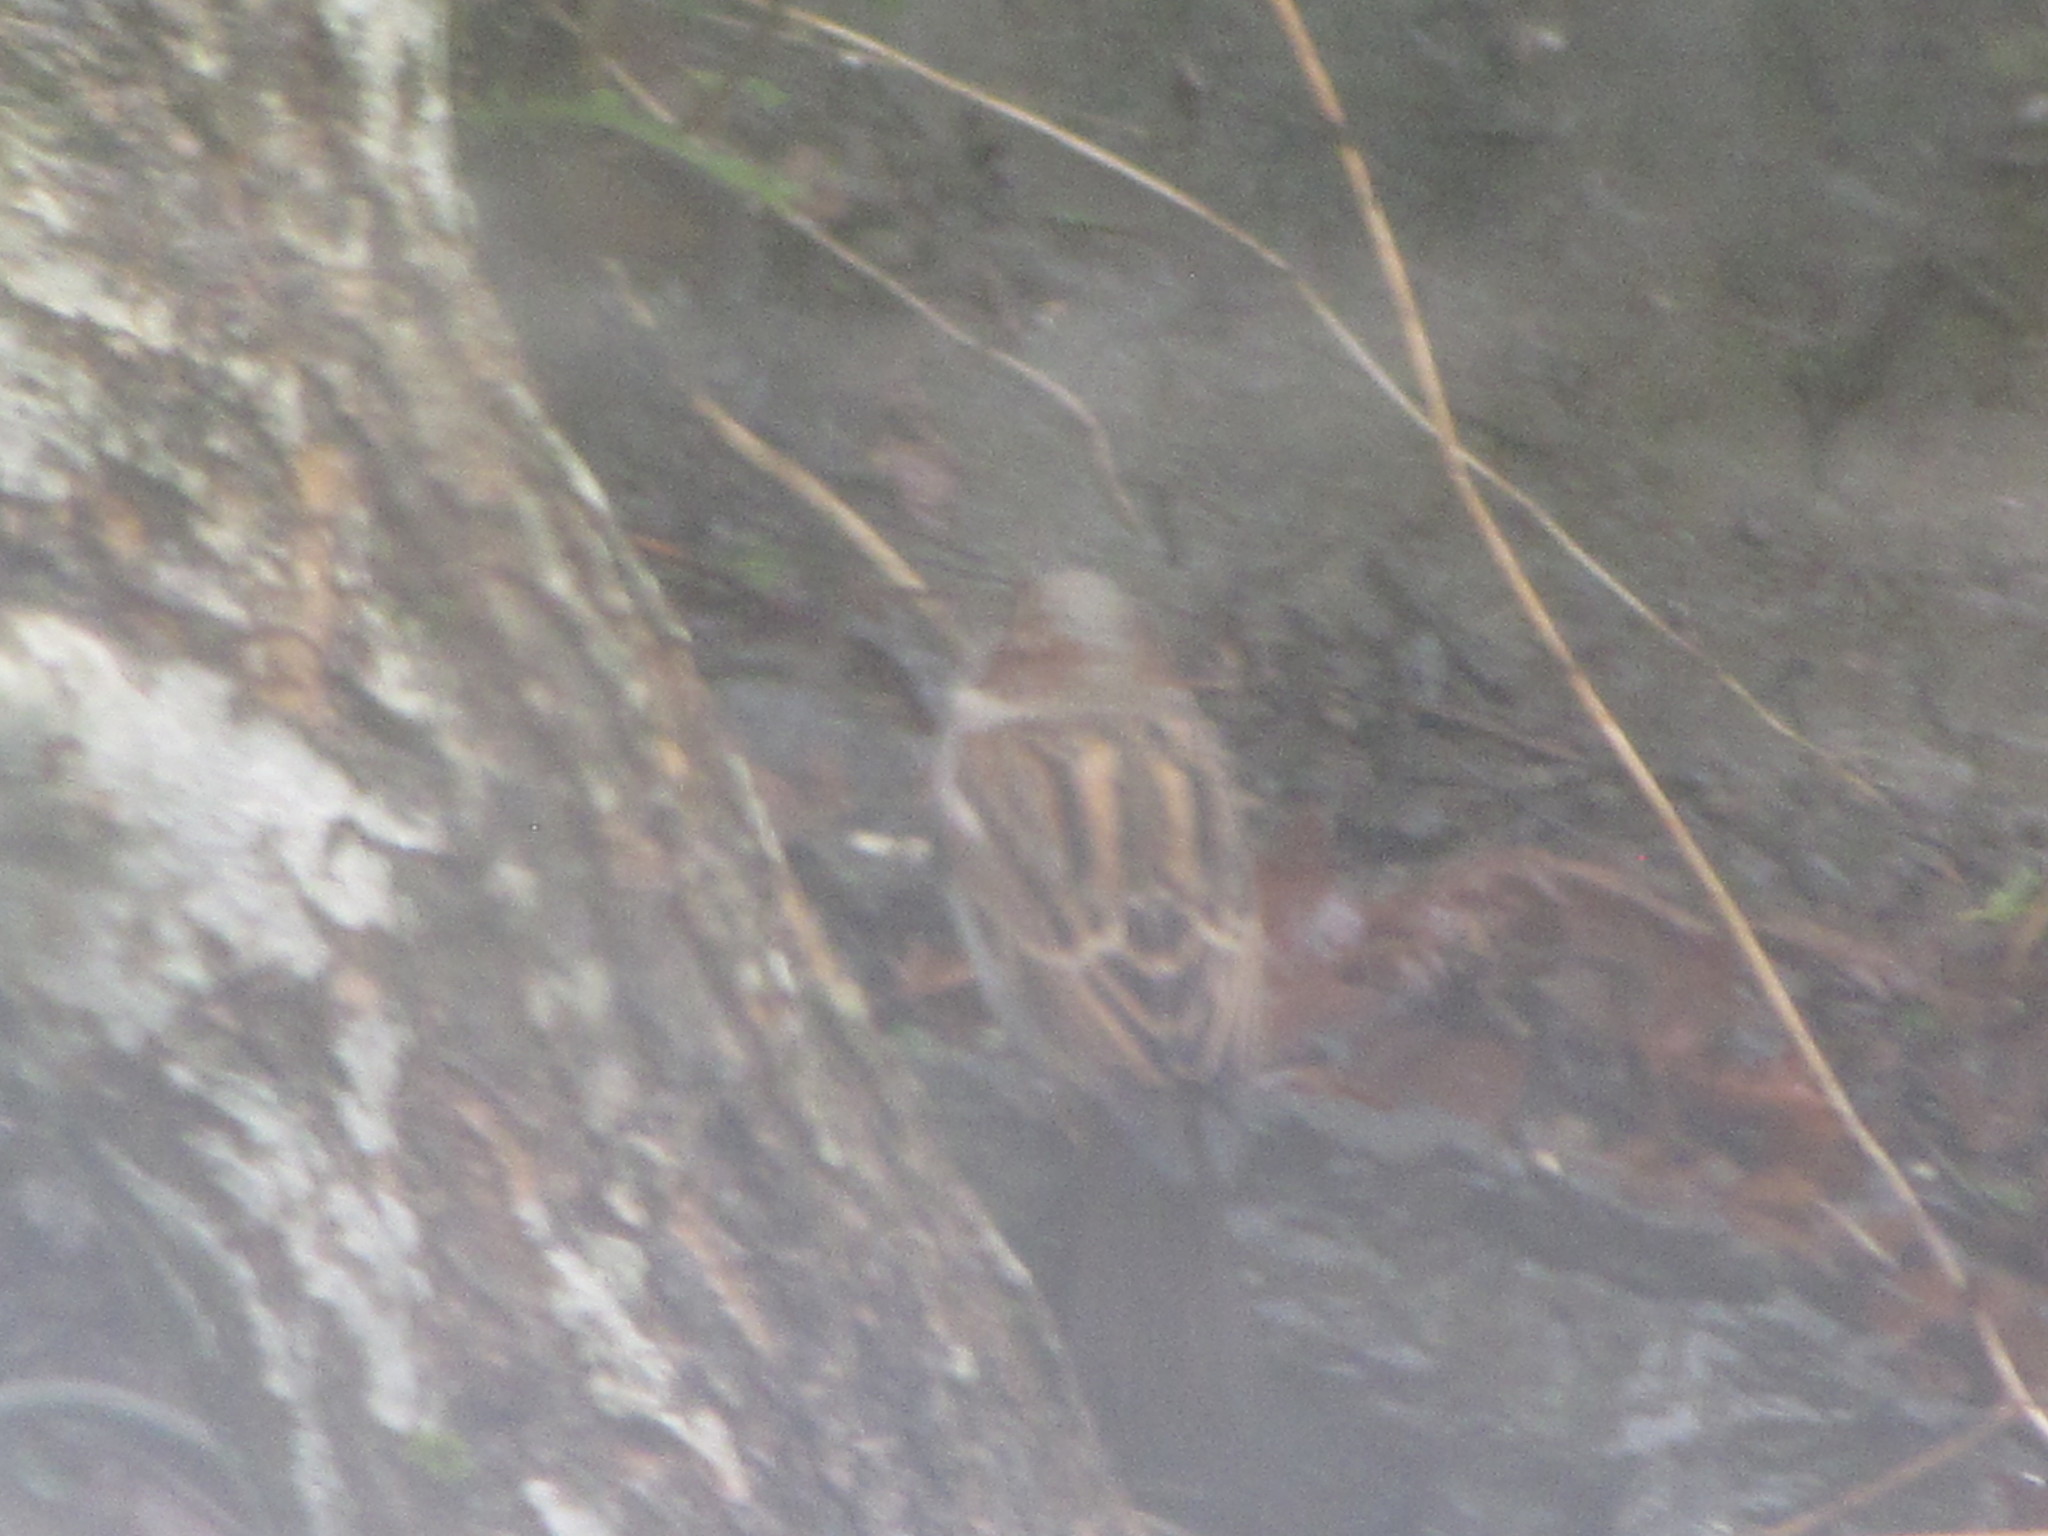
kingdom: Animalia
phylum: Chordata
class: Aves
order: Passeriformes
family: Passeridae
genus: Passer
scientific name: Passer domesticus
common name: House sparrow
